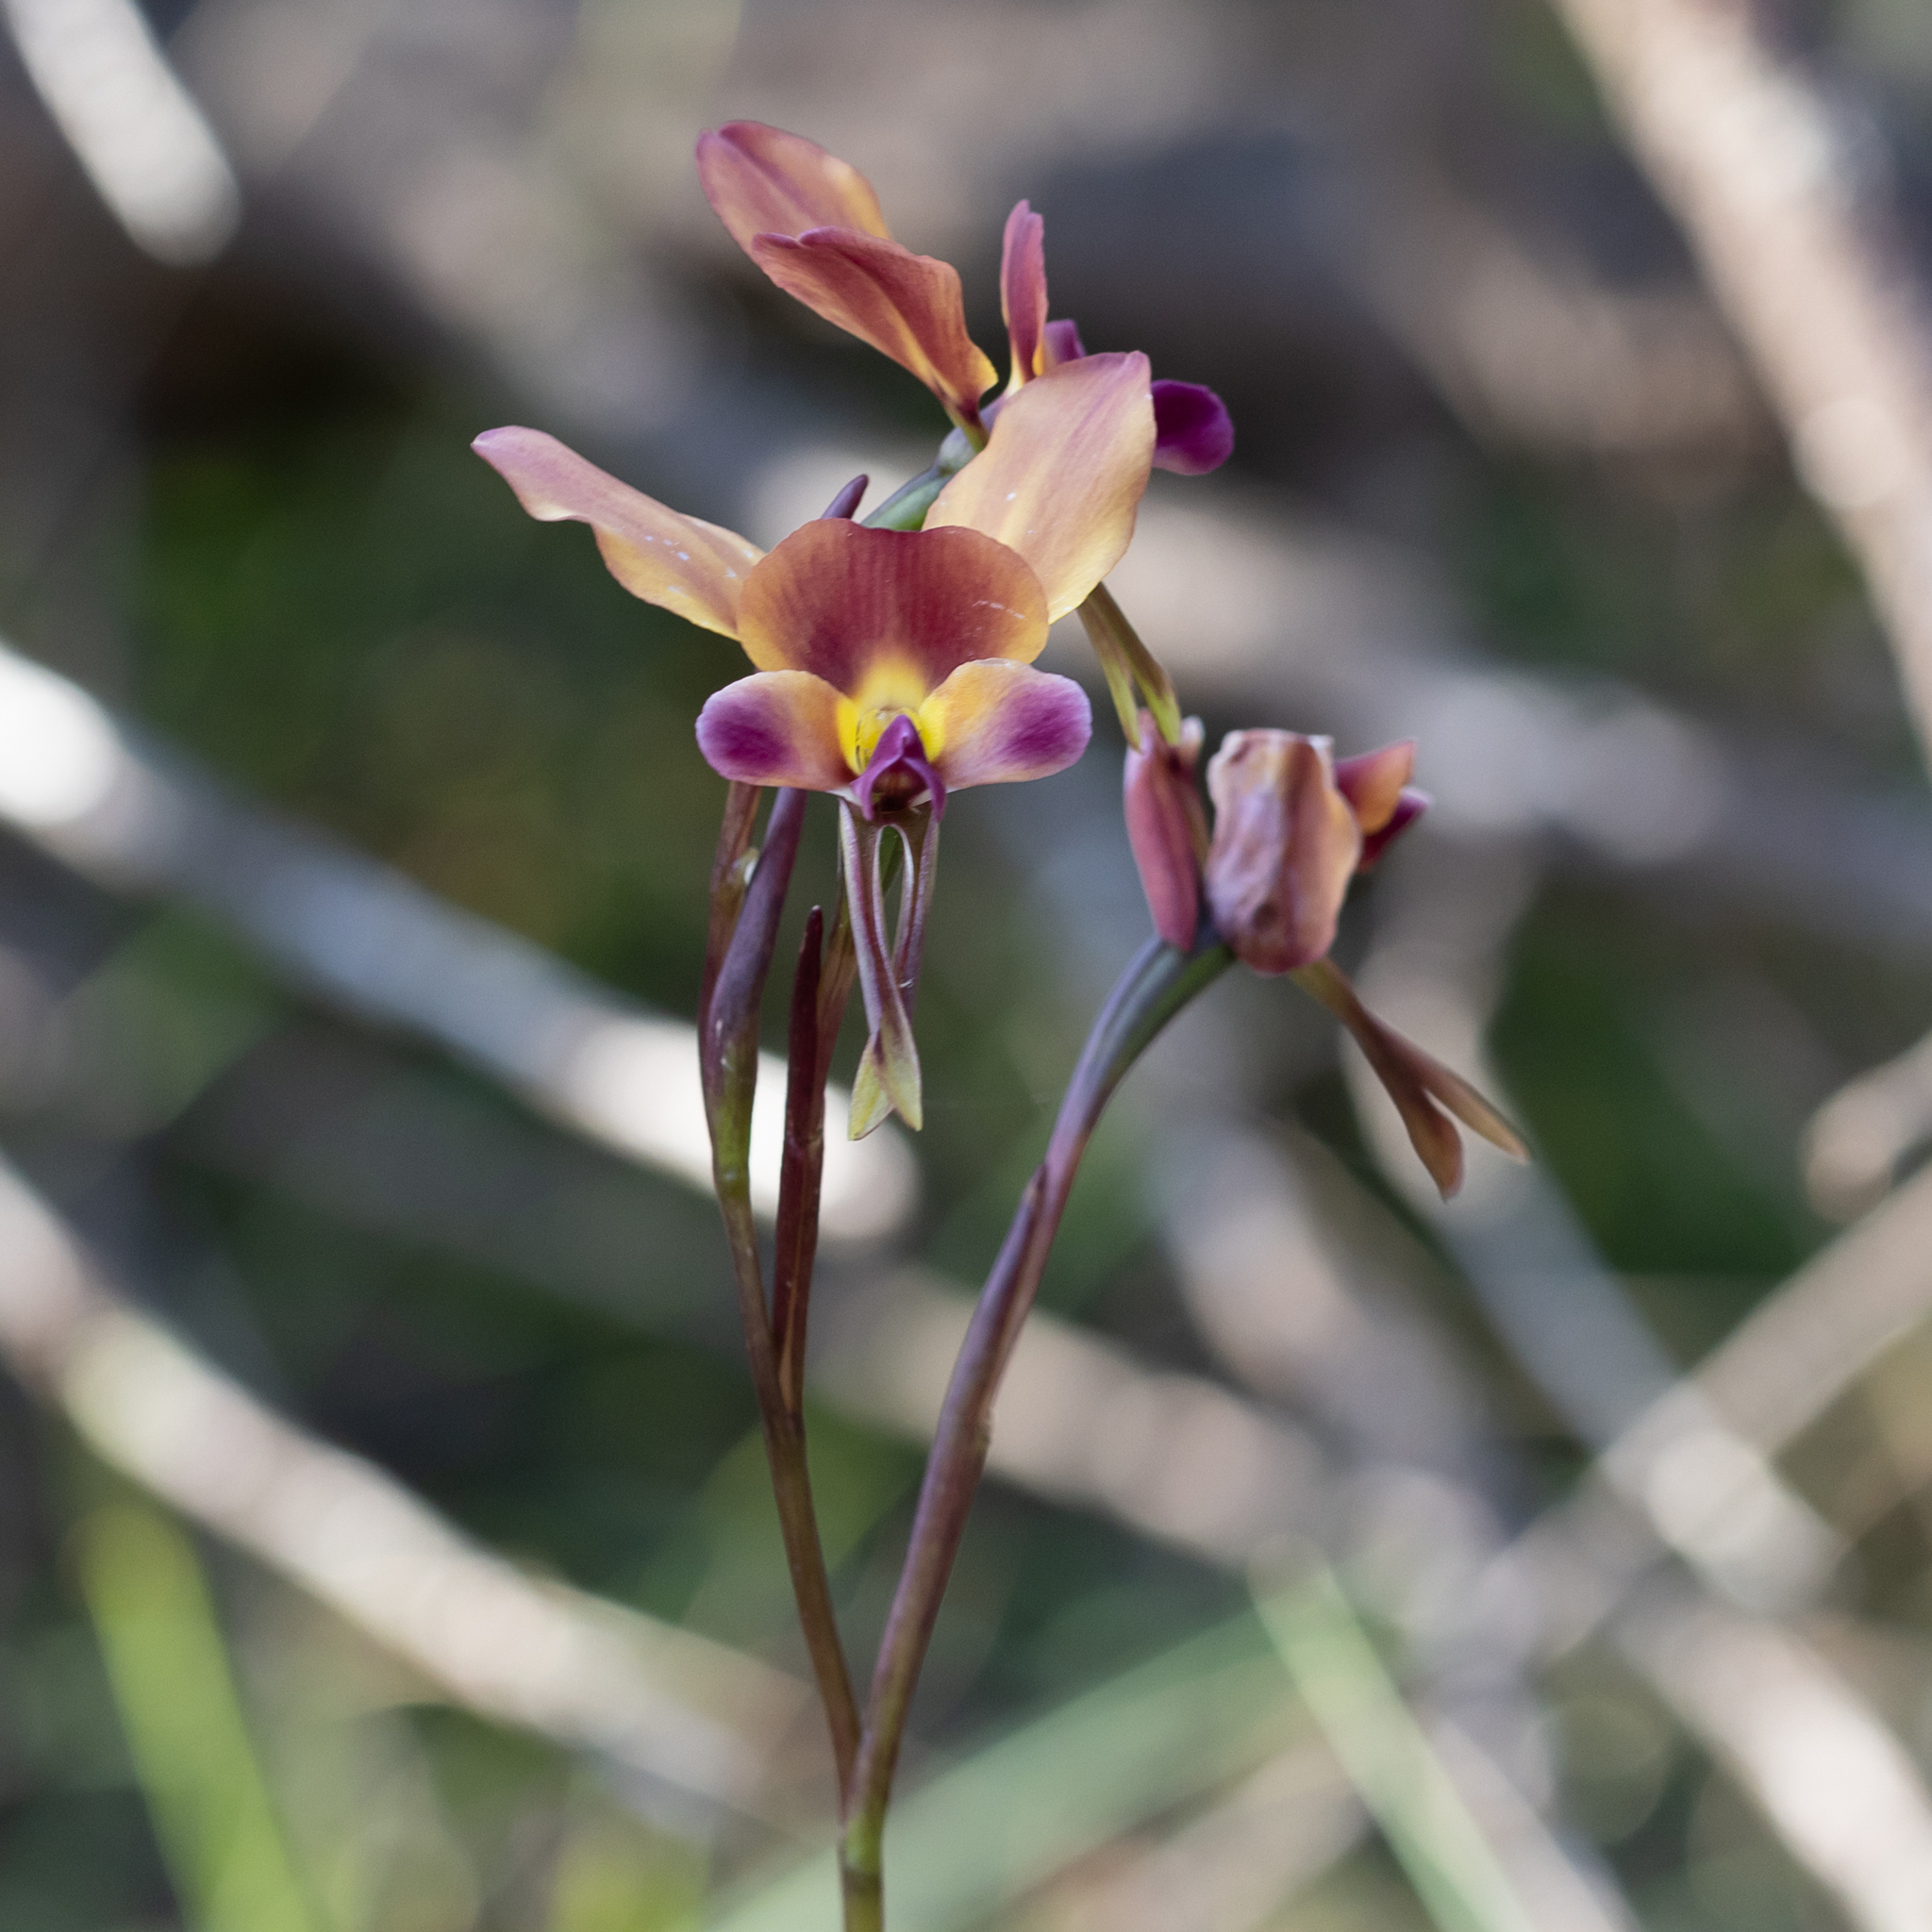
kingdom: Plantae
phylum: Tracheophyta
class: Liliopsida
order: Asparagales
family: Orchidaceae
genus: Diuris
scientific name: Diuris longifolia
